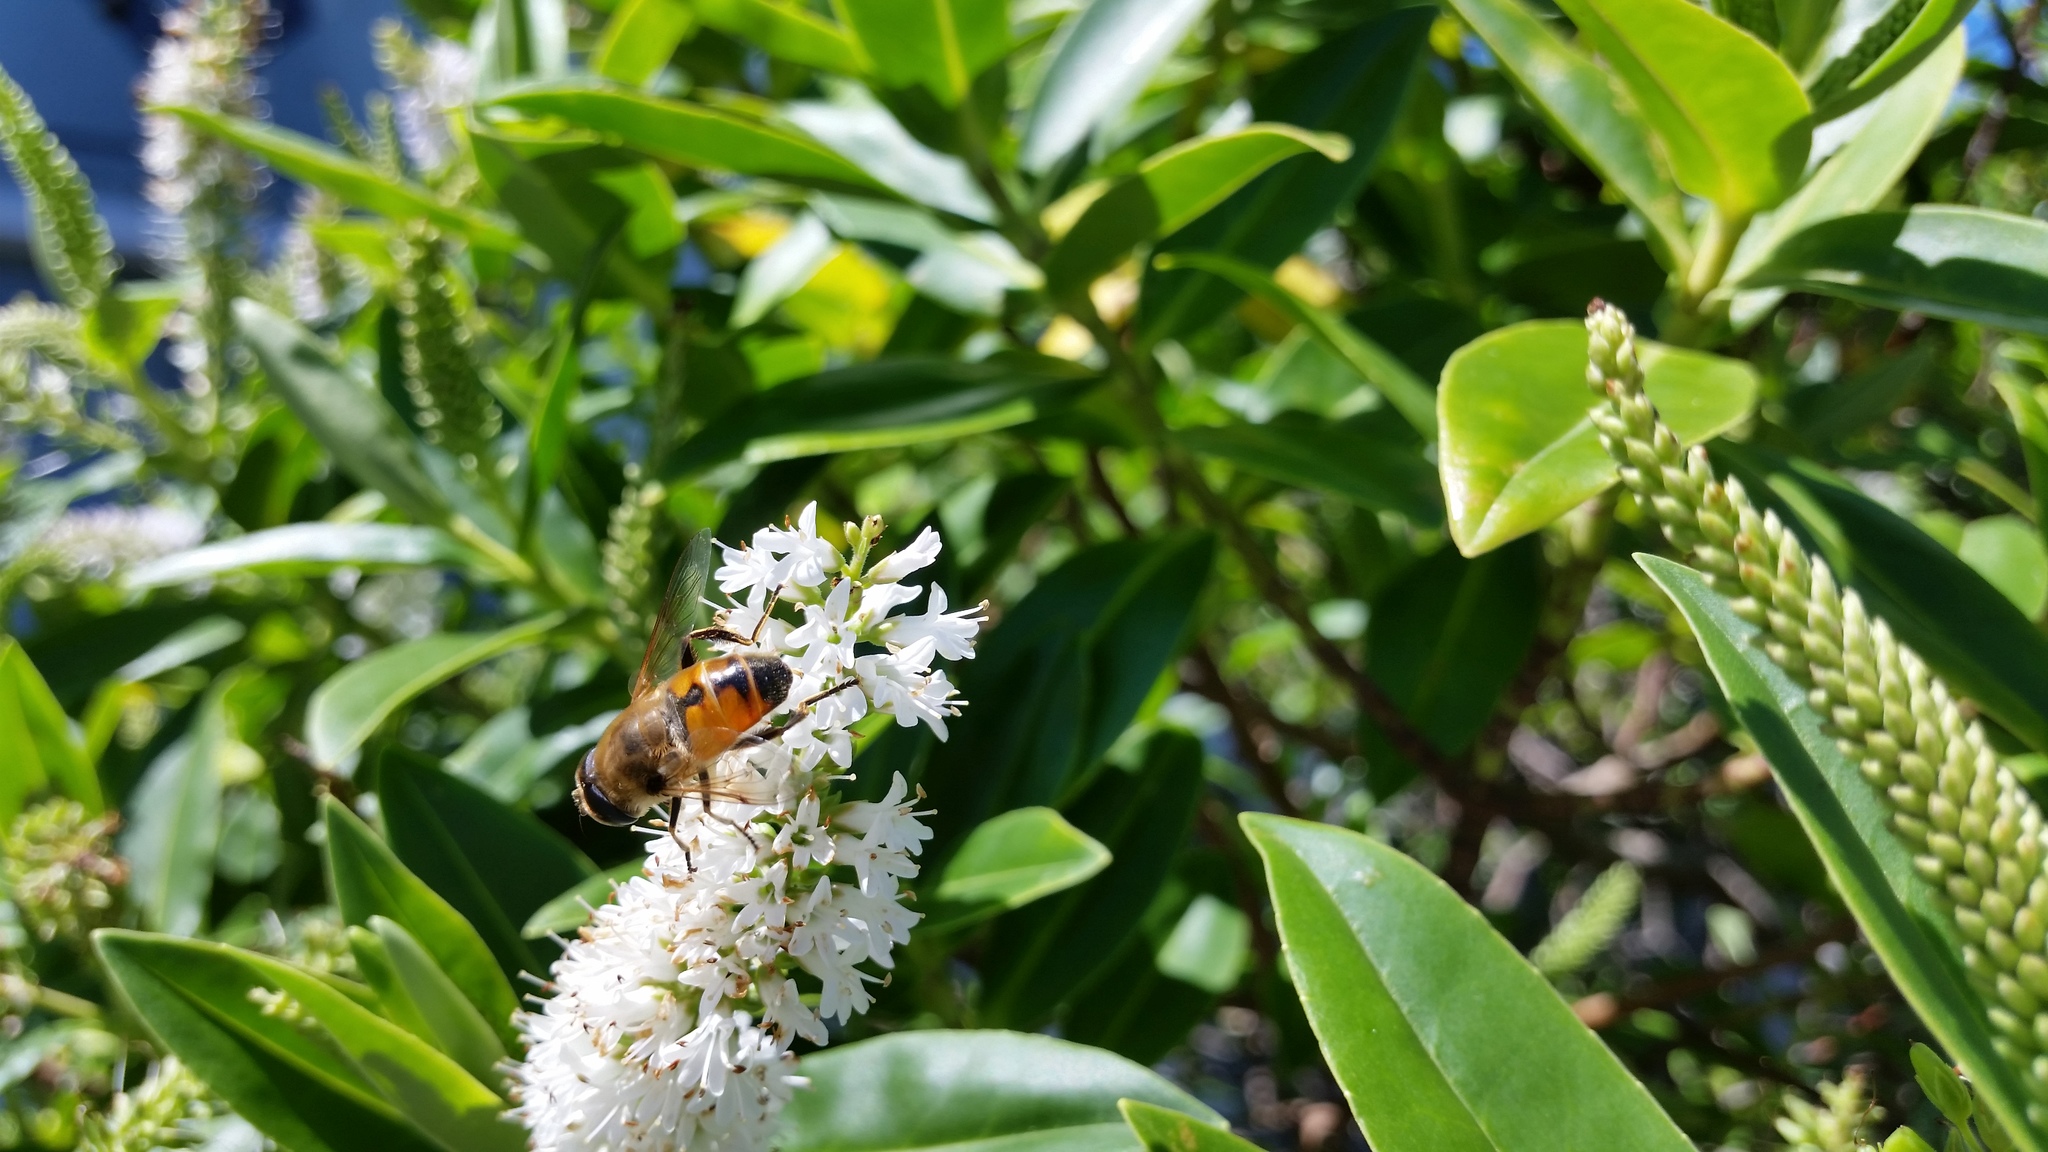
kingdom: Animalia
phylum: Arthropoda
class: Insecta
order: Diptera
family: Syrphidae
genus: Eristalis
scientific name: Eristalis tenax
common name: Drone fly
